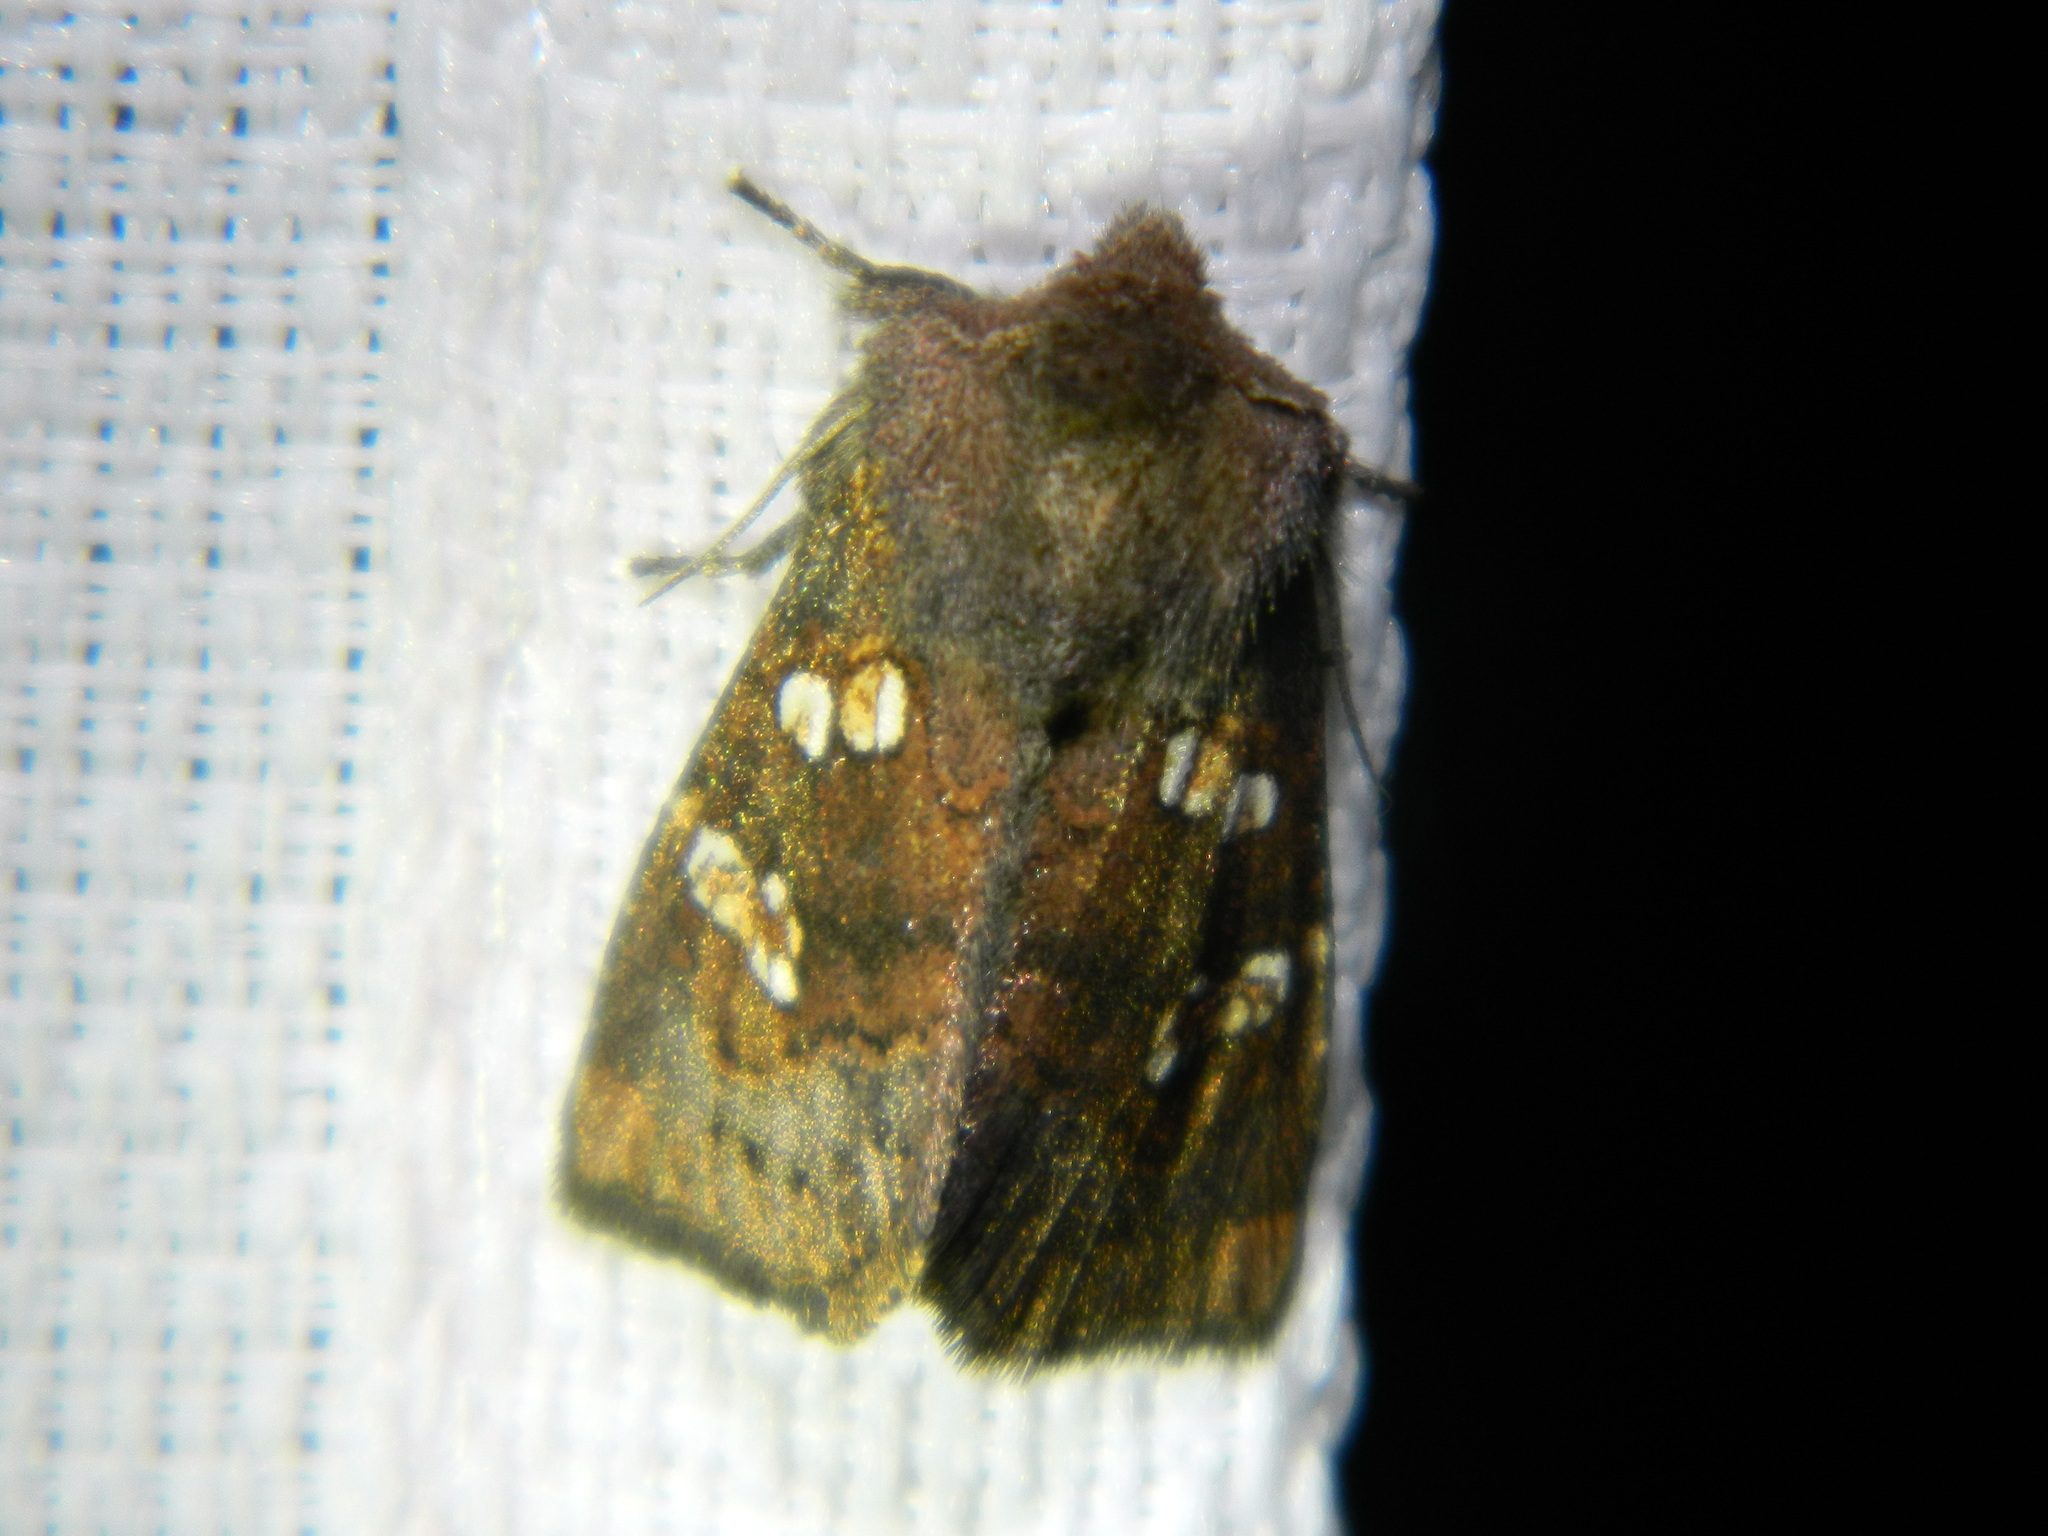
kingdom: Animalia
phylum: Arthropoda
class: Insecta
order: Lepidoptera
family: Noctuidae
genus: Papaipema
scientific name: Papaipema unimoda
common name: Meadow rue borer moth
